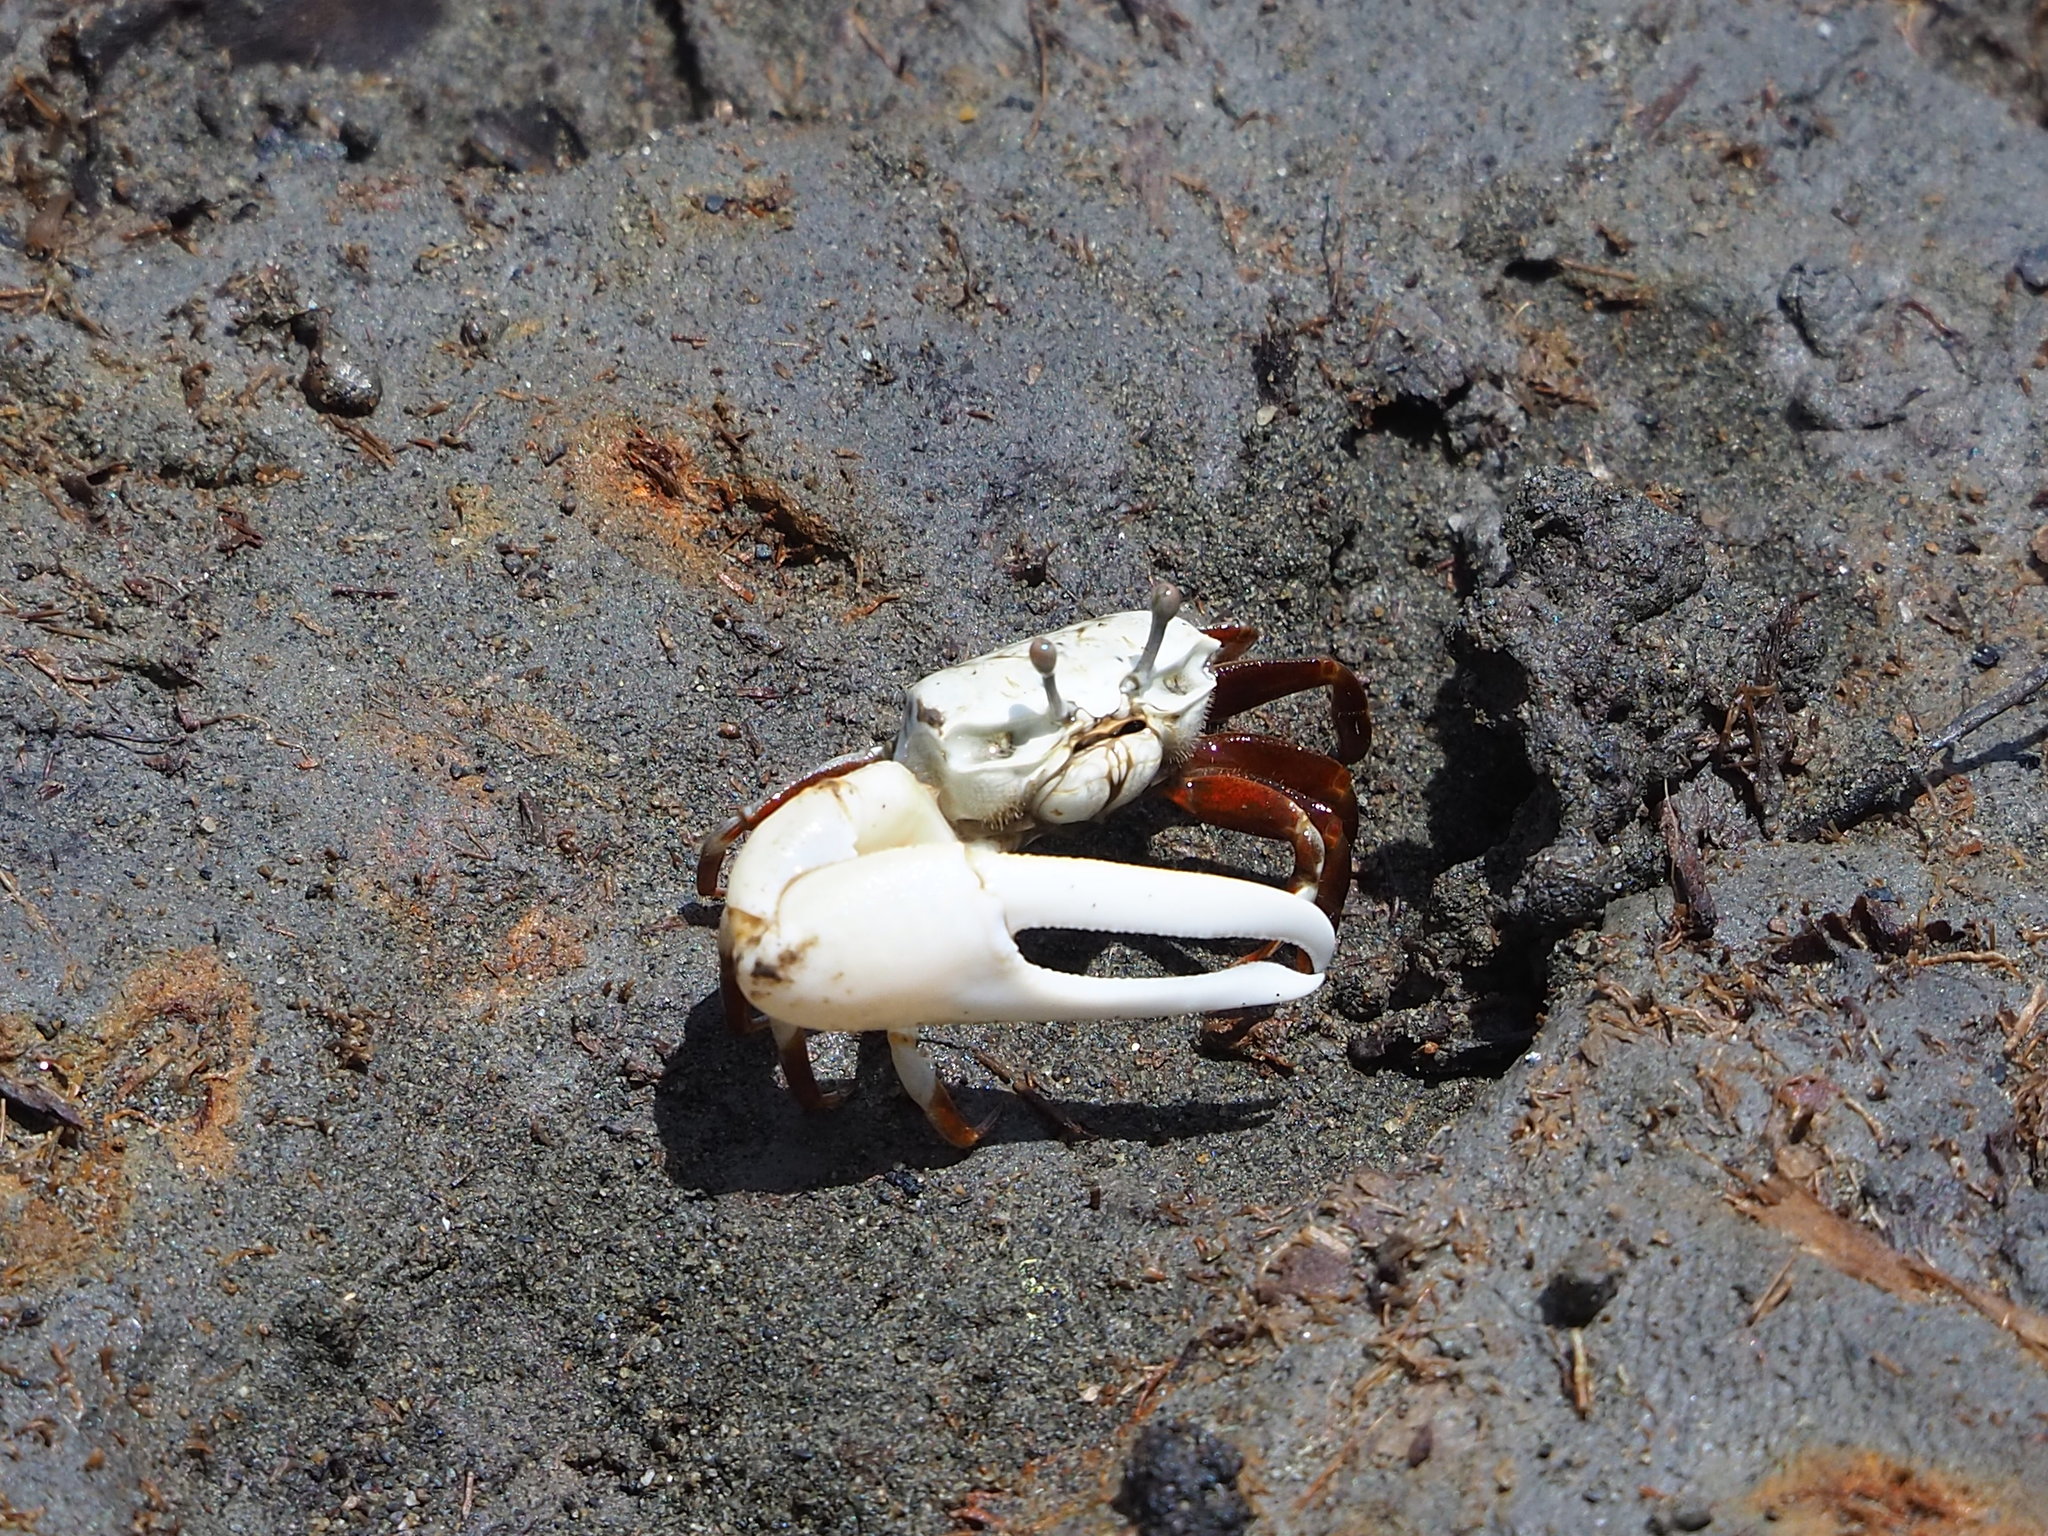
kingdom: Animalia
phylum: Arthropoda
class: Malacostraca
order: Decapoda
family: Ocypodidae
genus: Austruca
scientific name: Austruca lactea
